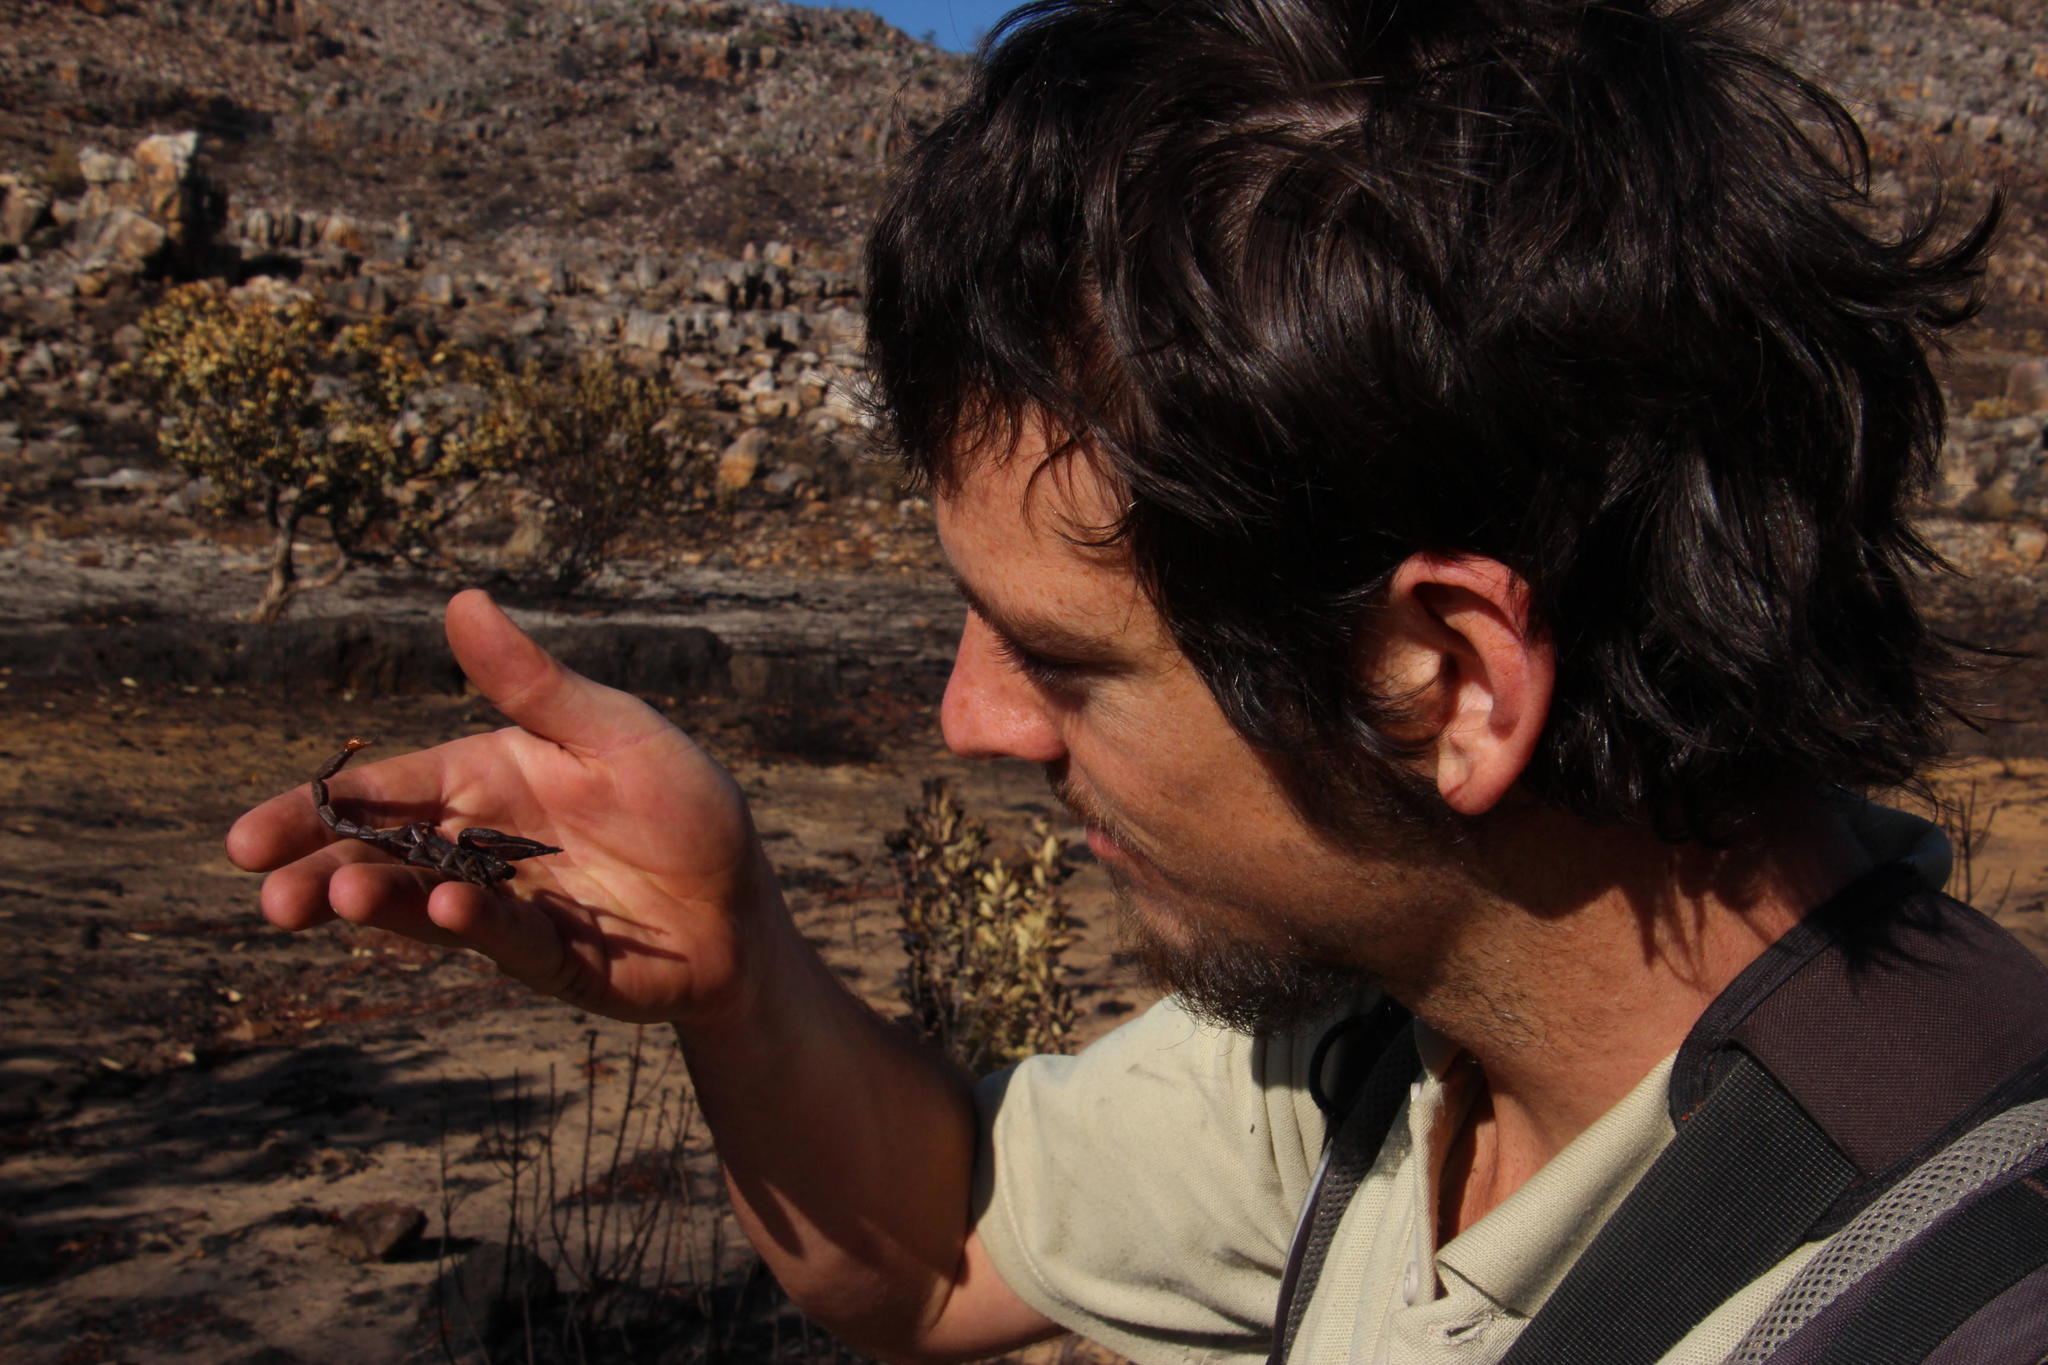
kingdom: Animalia
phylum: Arthropoda
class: Arachnida
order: Scorpiones
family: Scorpionidae
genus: Opistophthalmus
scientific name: Opistophthalmus pattisoni
